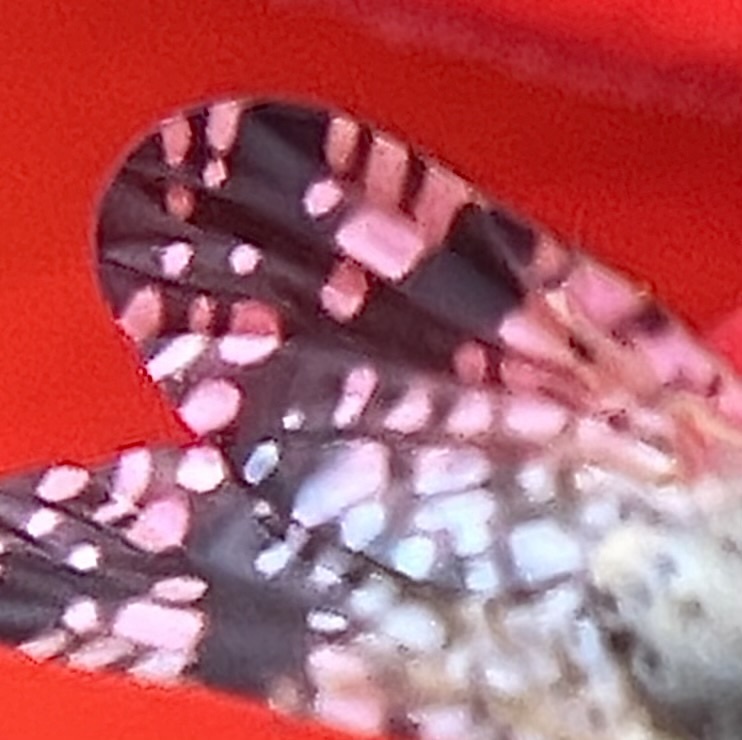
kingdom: Animalia
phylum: Arthropoda
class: Insecta
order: Diptera
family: Tephritidae
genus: Neotephritis
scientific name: Neotephritis finalis
